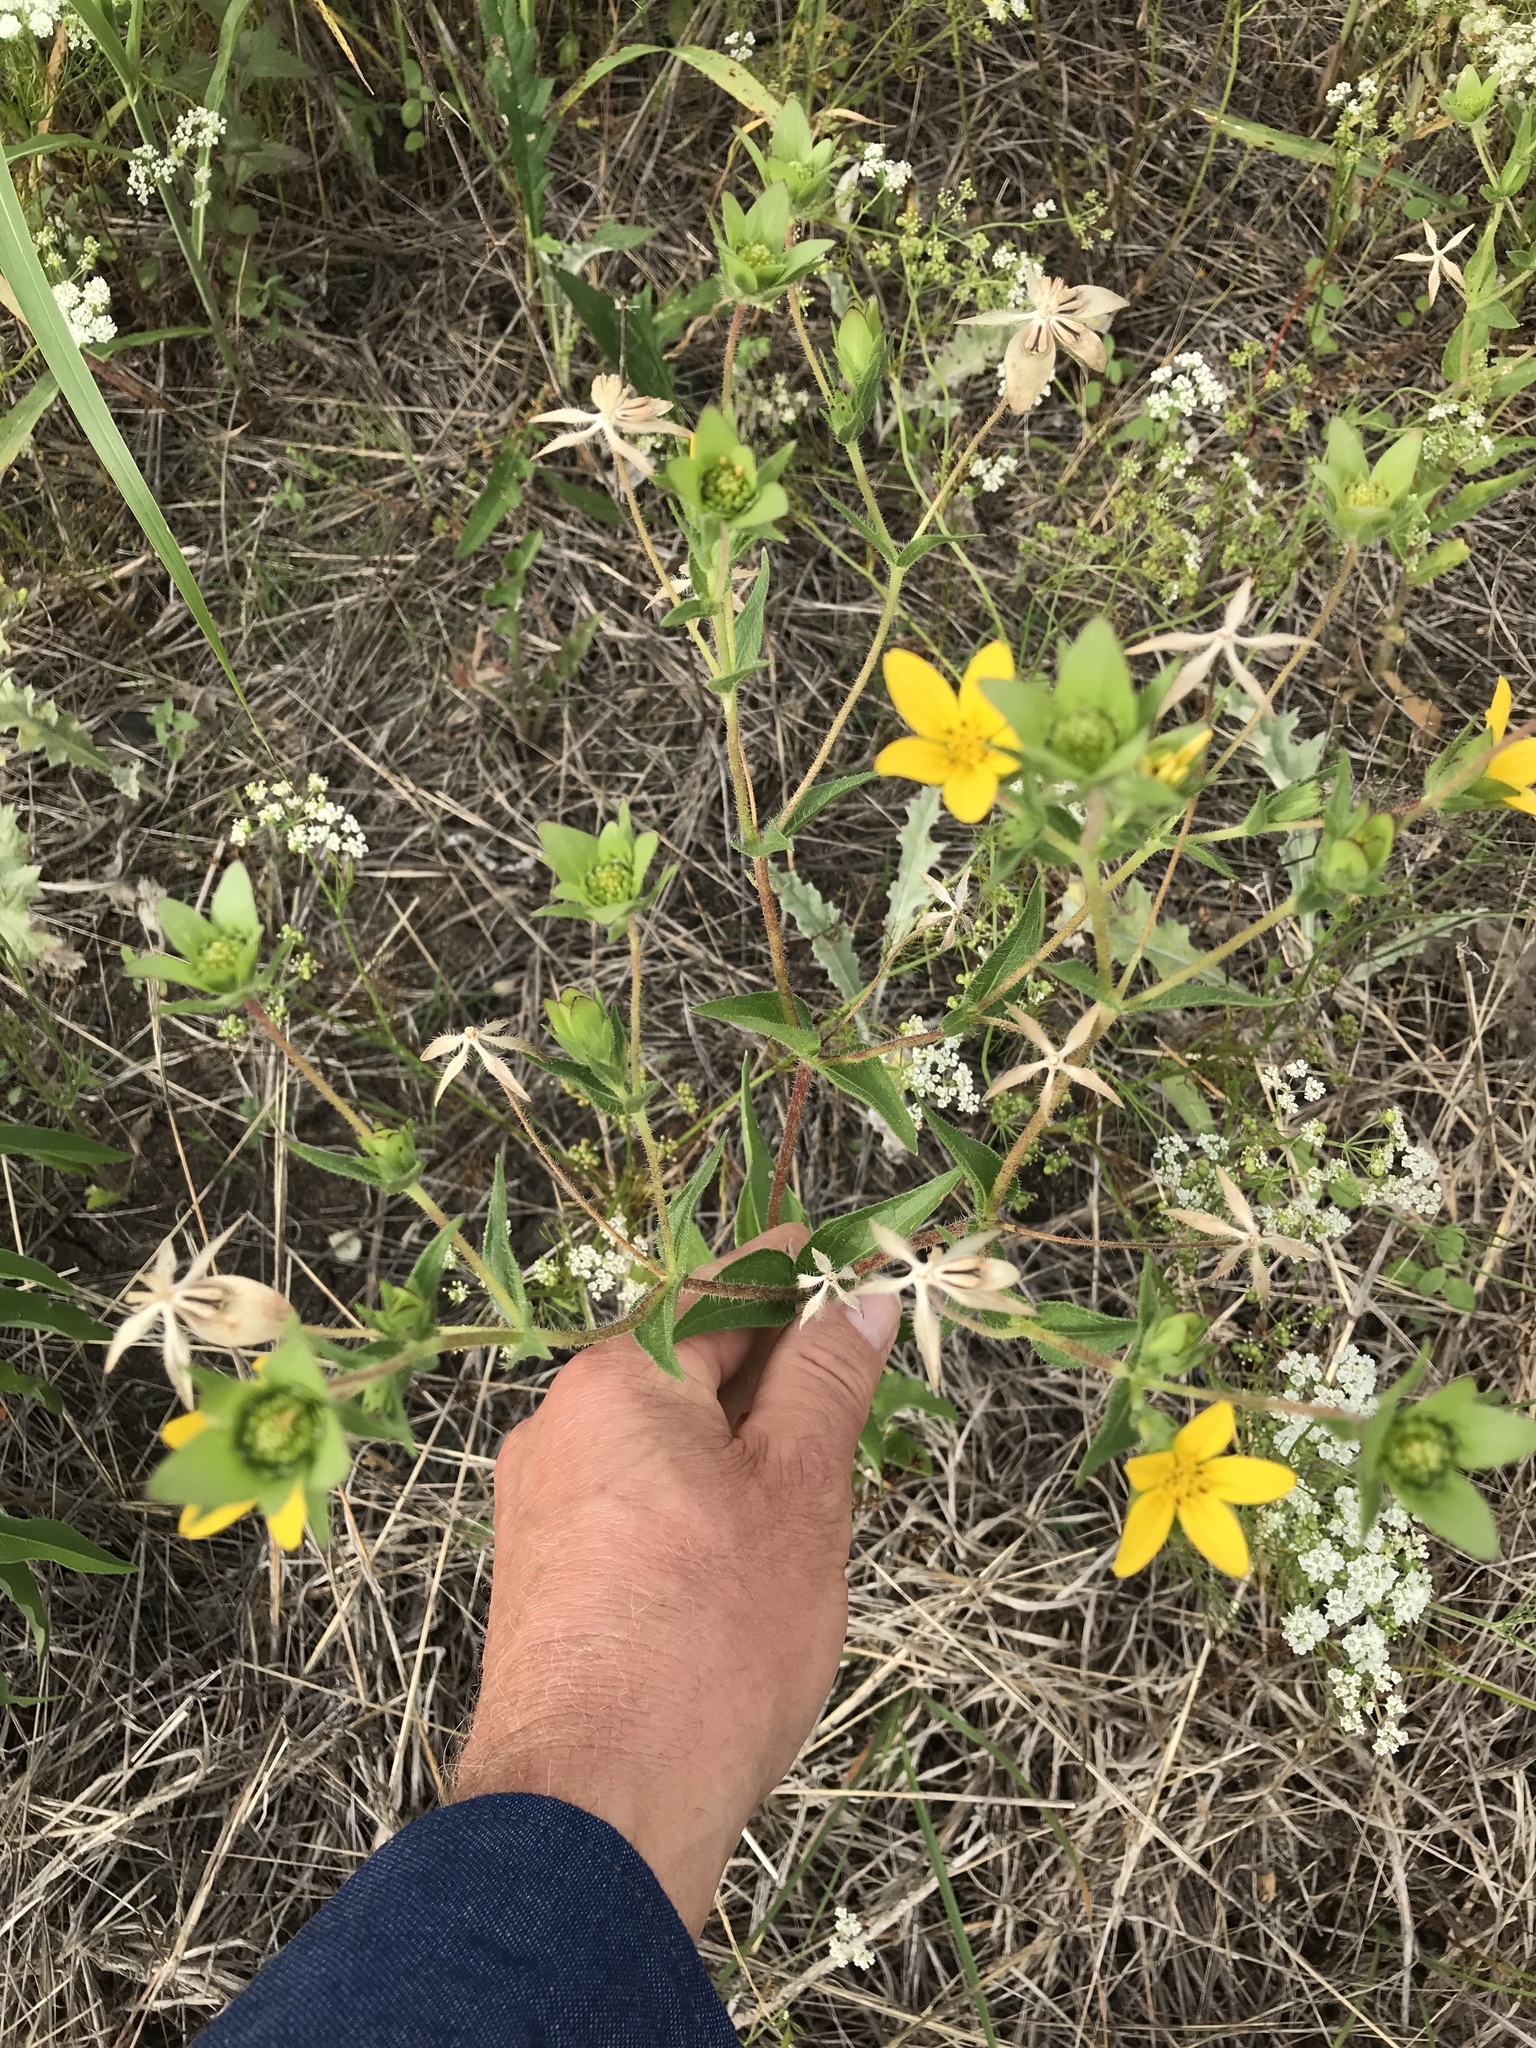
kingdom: Plantae
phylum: Tracheophyta
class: Magnoliopsida
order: Asterales
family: Asteraceae
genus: Lindheimera
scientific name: Lindheimera texana
